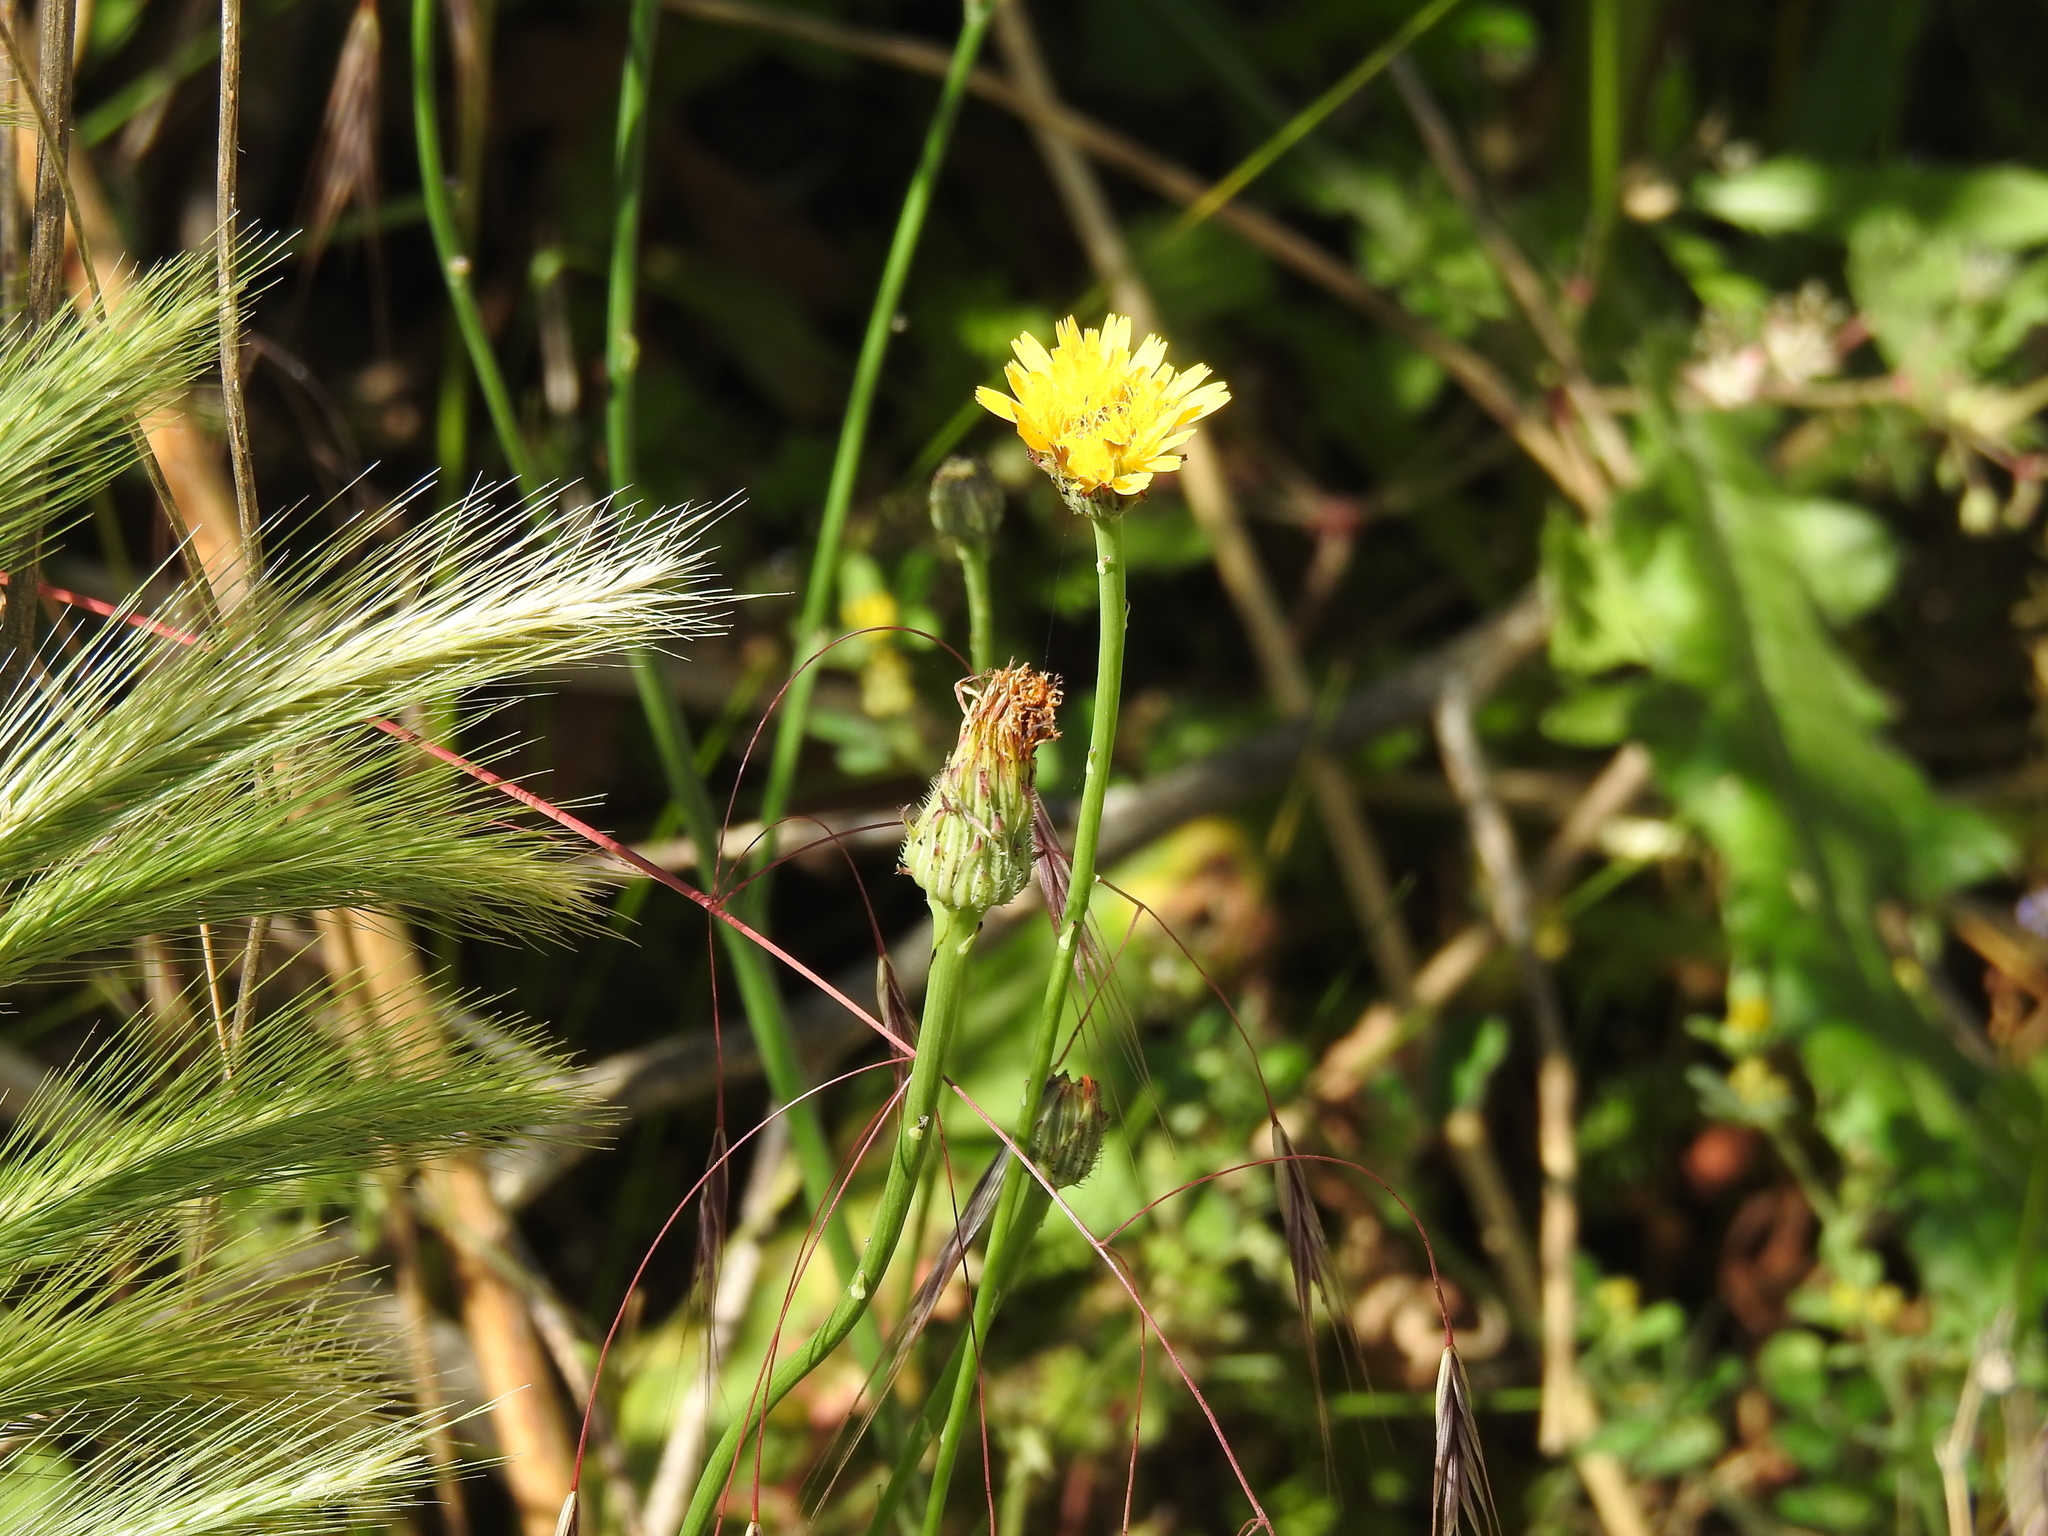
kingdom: Plantae
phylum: Tracheophyta
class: Magnoliopsida
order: Asterales
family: Asteraceae
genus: Hypochaeris
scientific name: Hypochaeris radicata
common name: Flatweed
